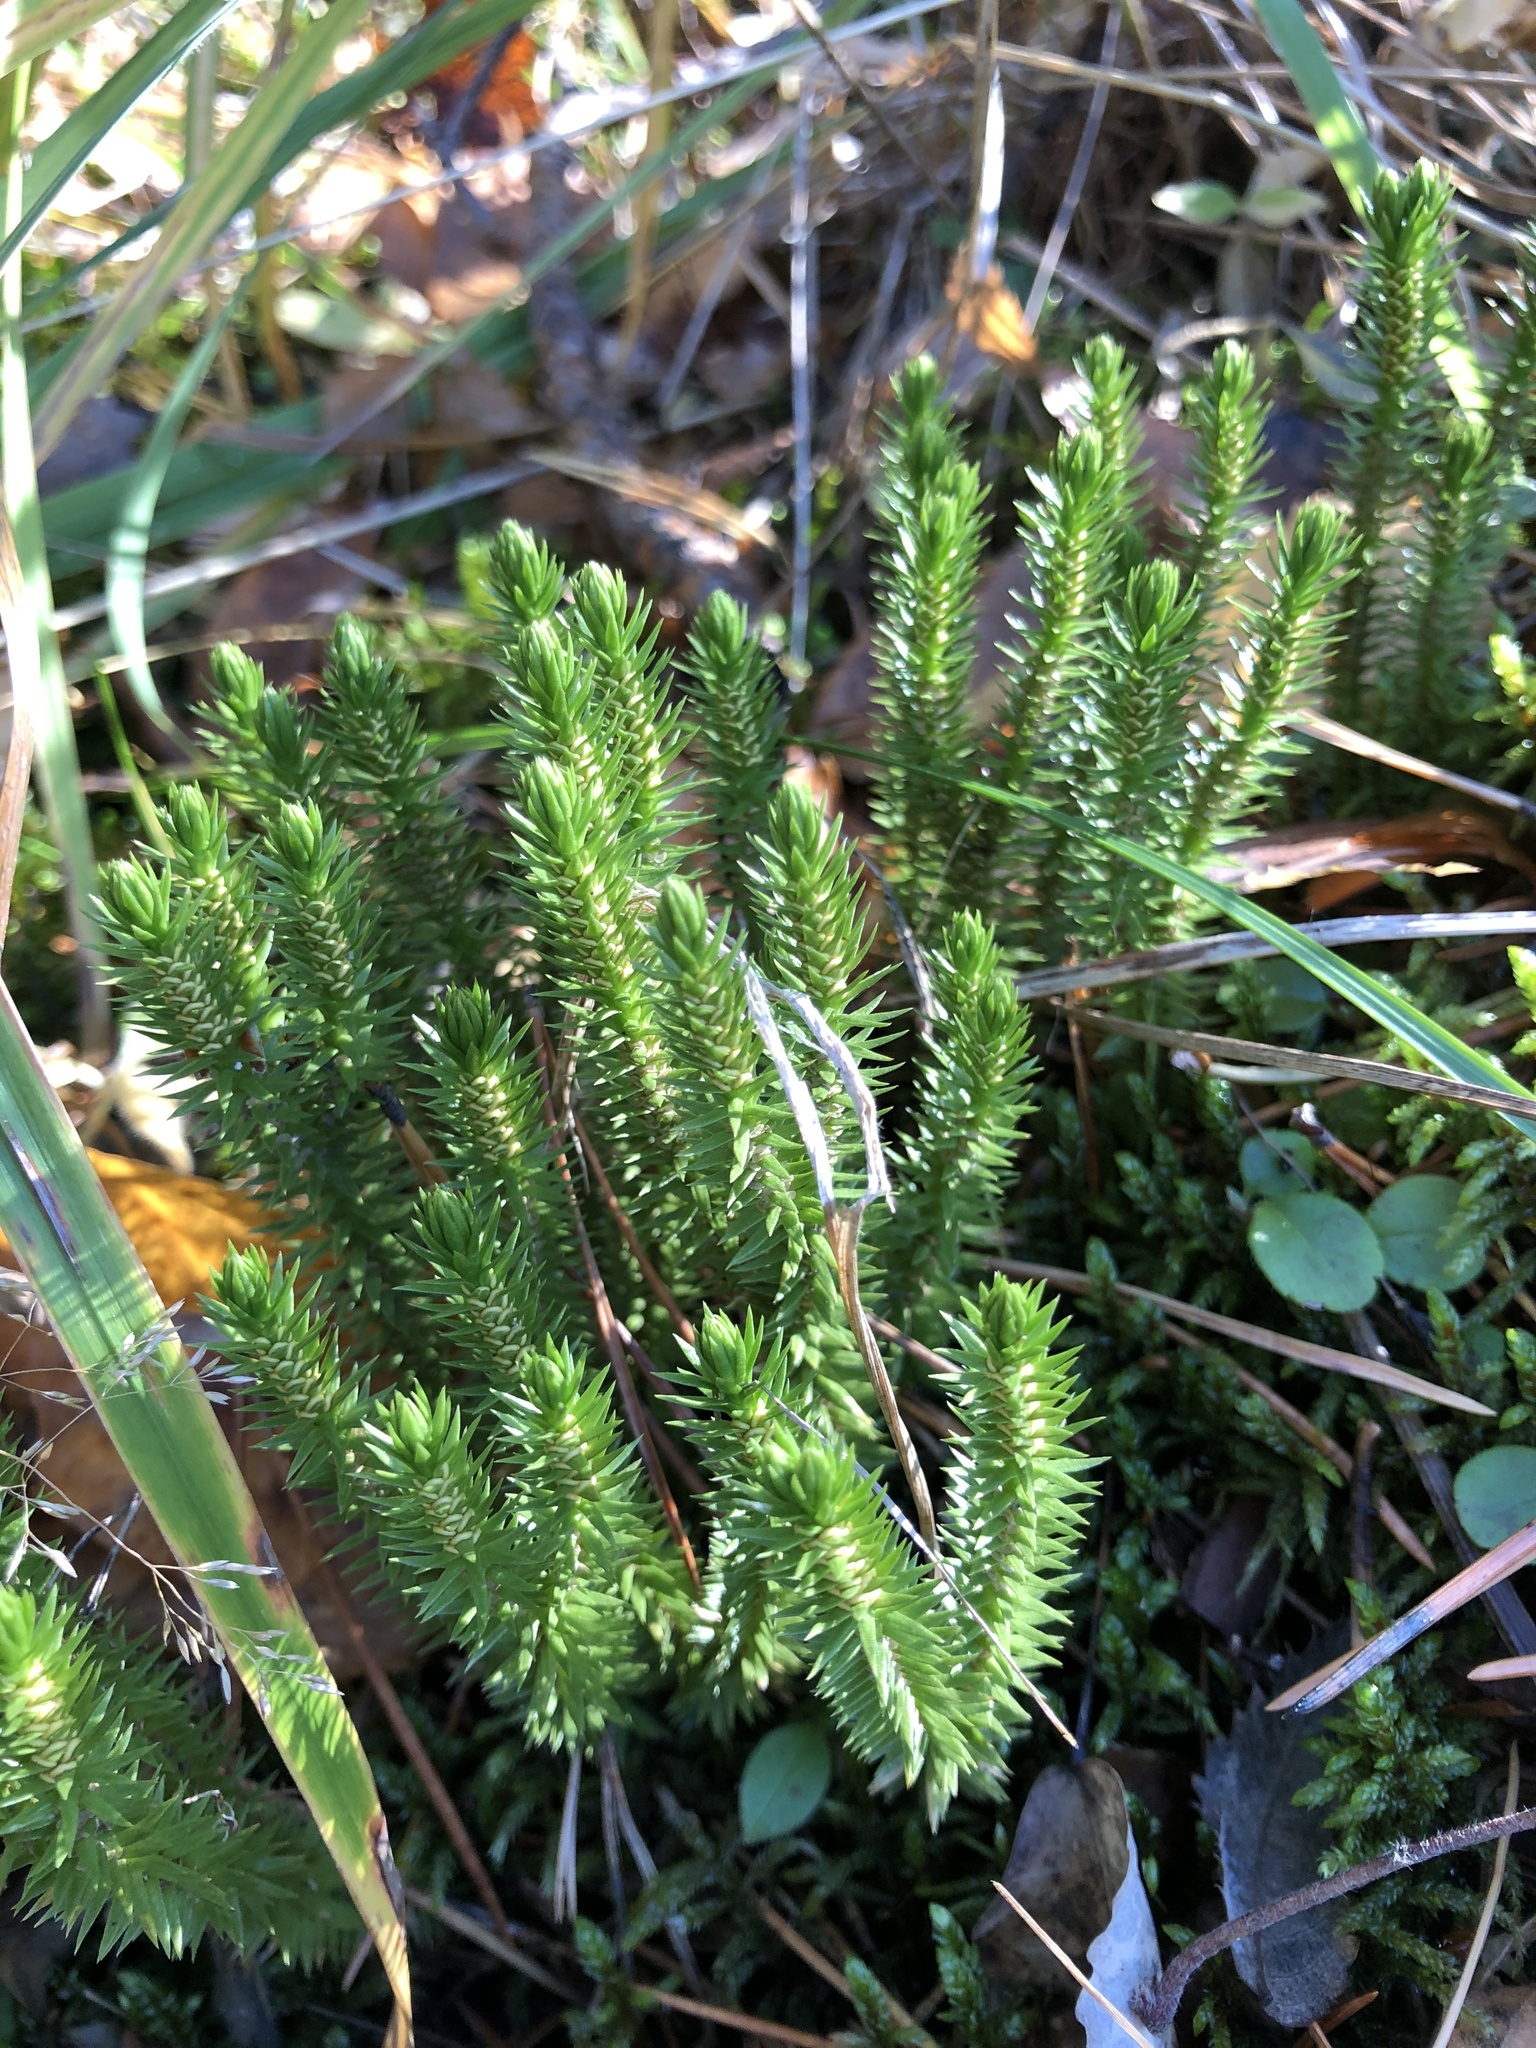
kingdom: Plantae
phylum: Tracheophyta
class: Lycopodiopsida
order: Lycopodiales
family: Lycopodiaceae
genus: Huperzia
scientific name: Huperzia selago
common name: Northern firmoss
